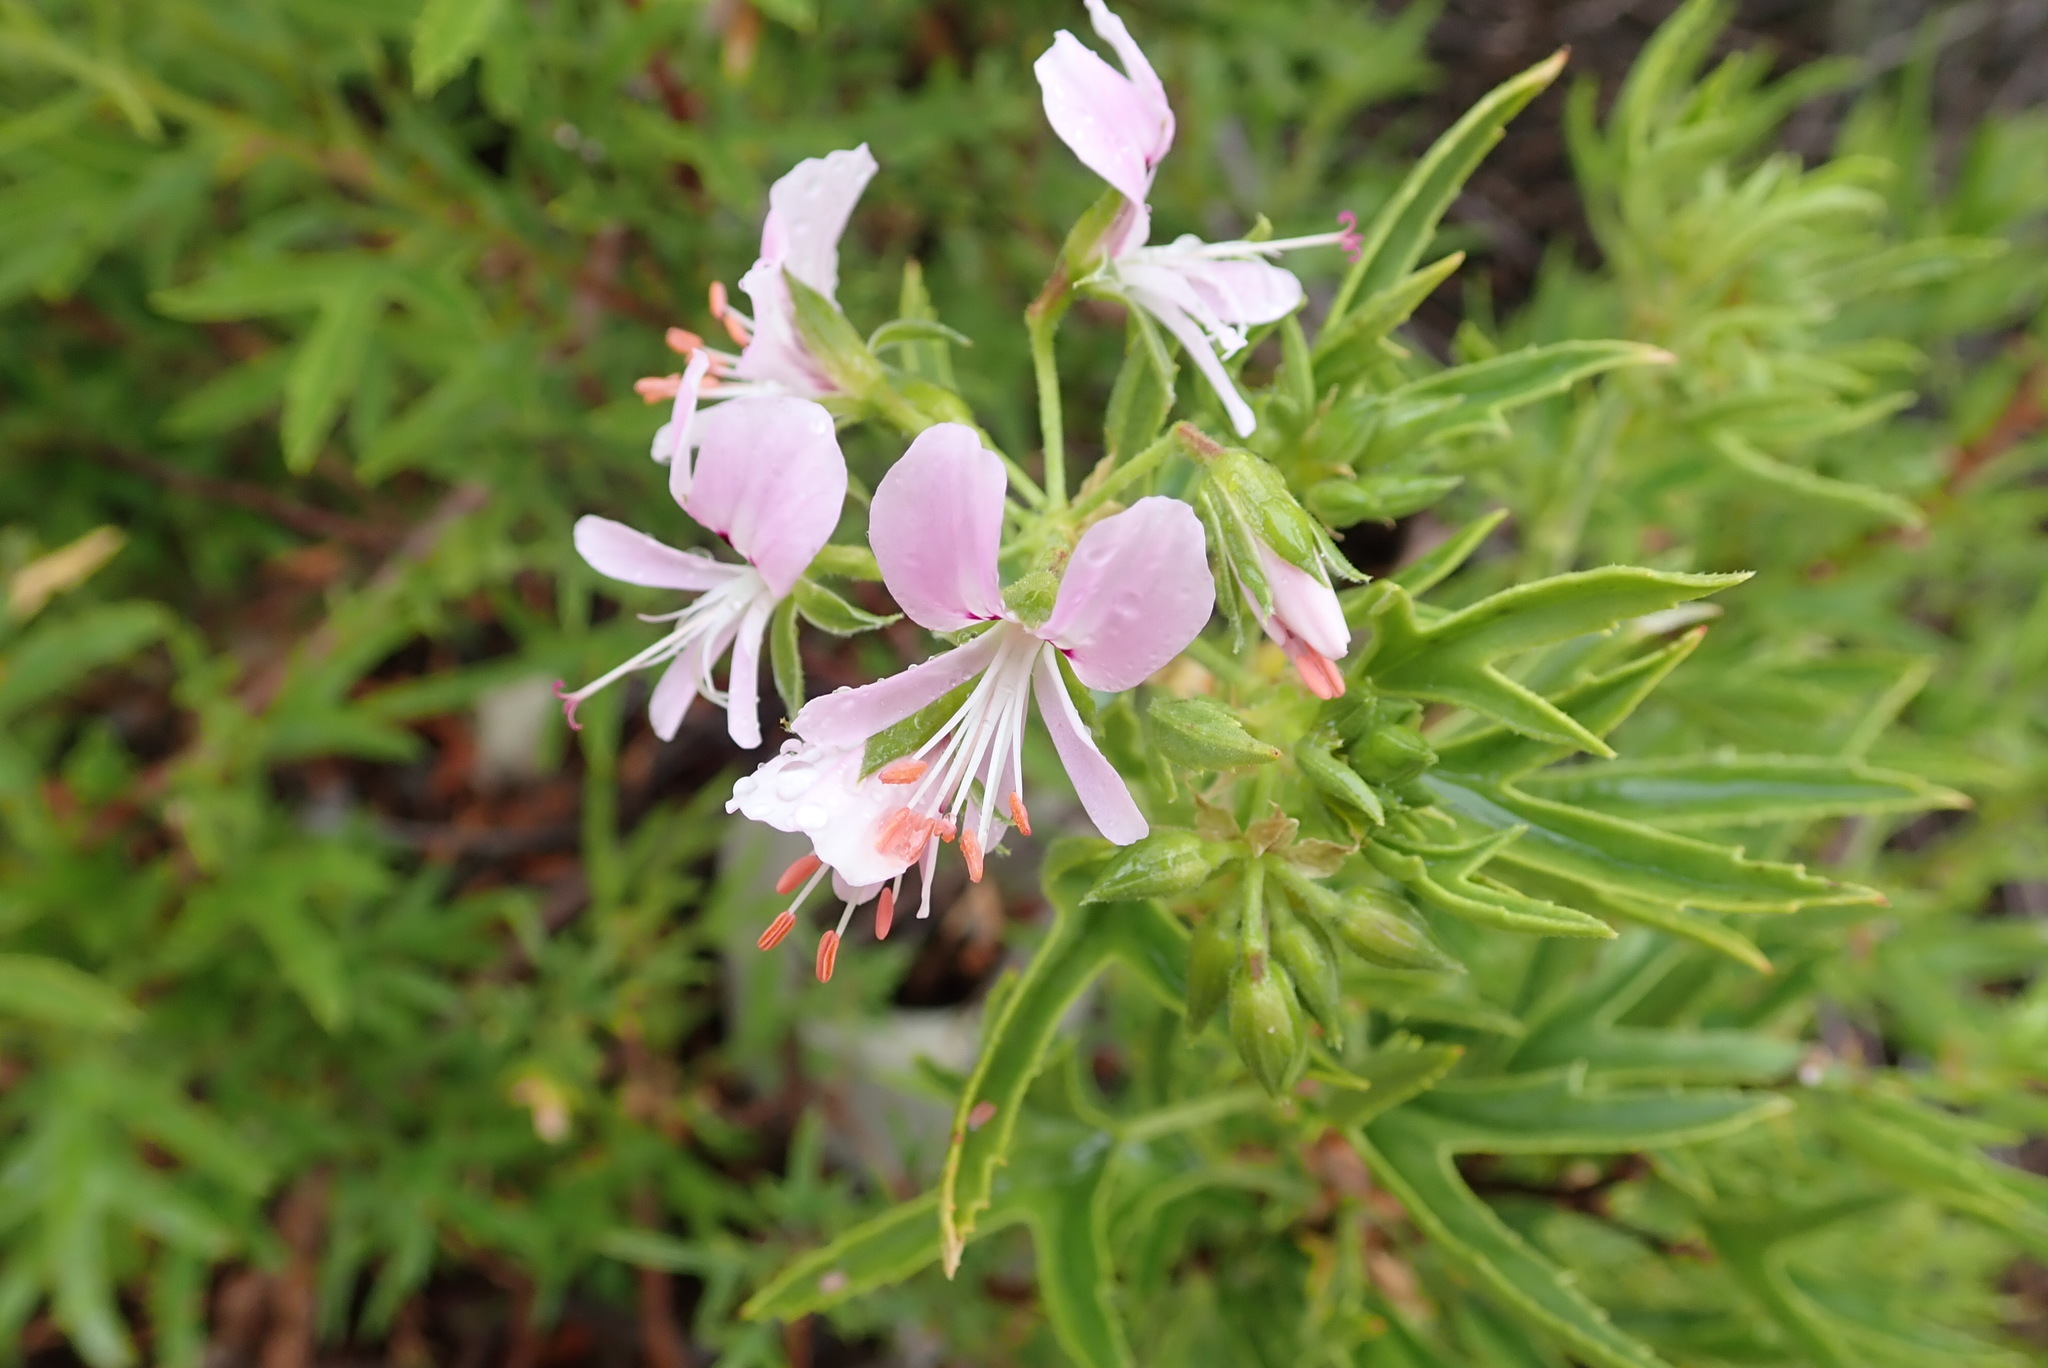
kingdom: Plantae
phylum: Tracheophyta
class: Magnoliopsida
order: Geraniales
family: Geraniaceae
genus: Pelargonium
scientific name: Pelargonium scabrum
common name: Apricot geranium
